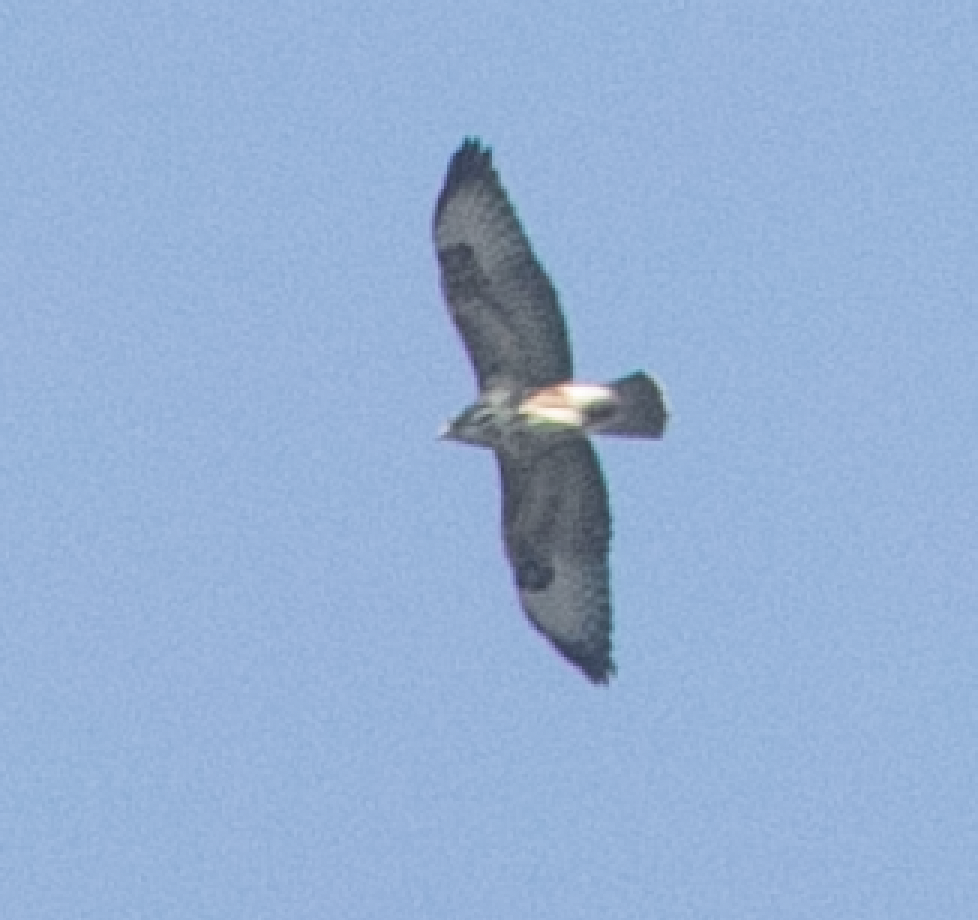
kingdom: Animalia
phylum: Chordata
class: Aves
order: Accipitriformes
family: Accipitridae
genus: Buteo
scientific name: Buteo buteo
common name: Common buzzard
